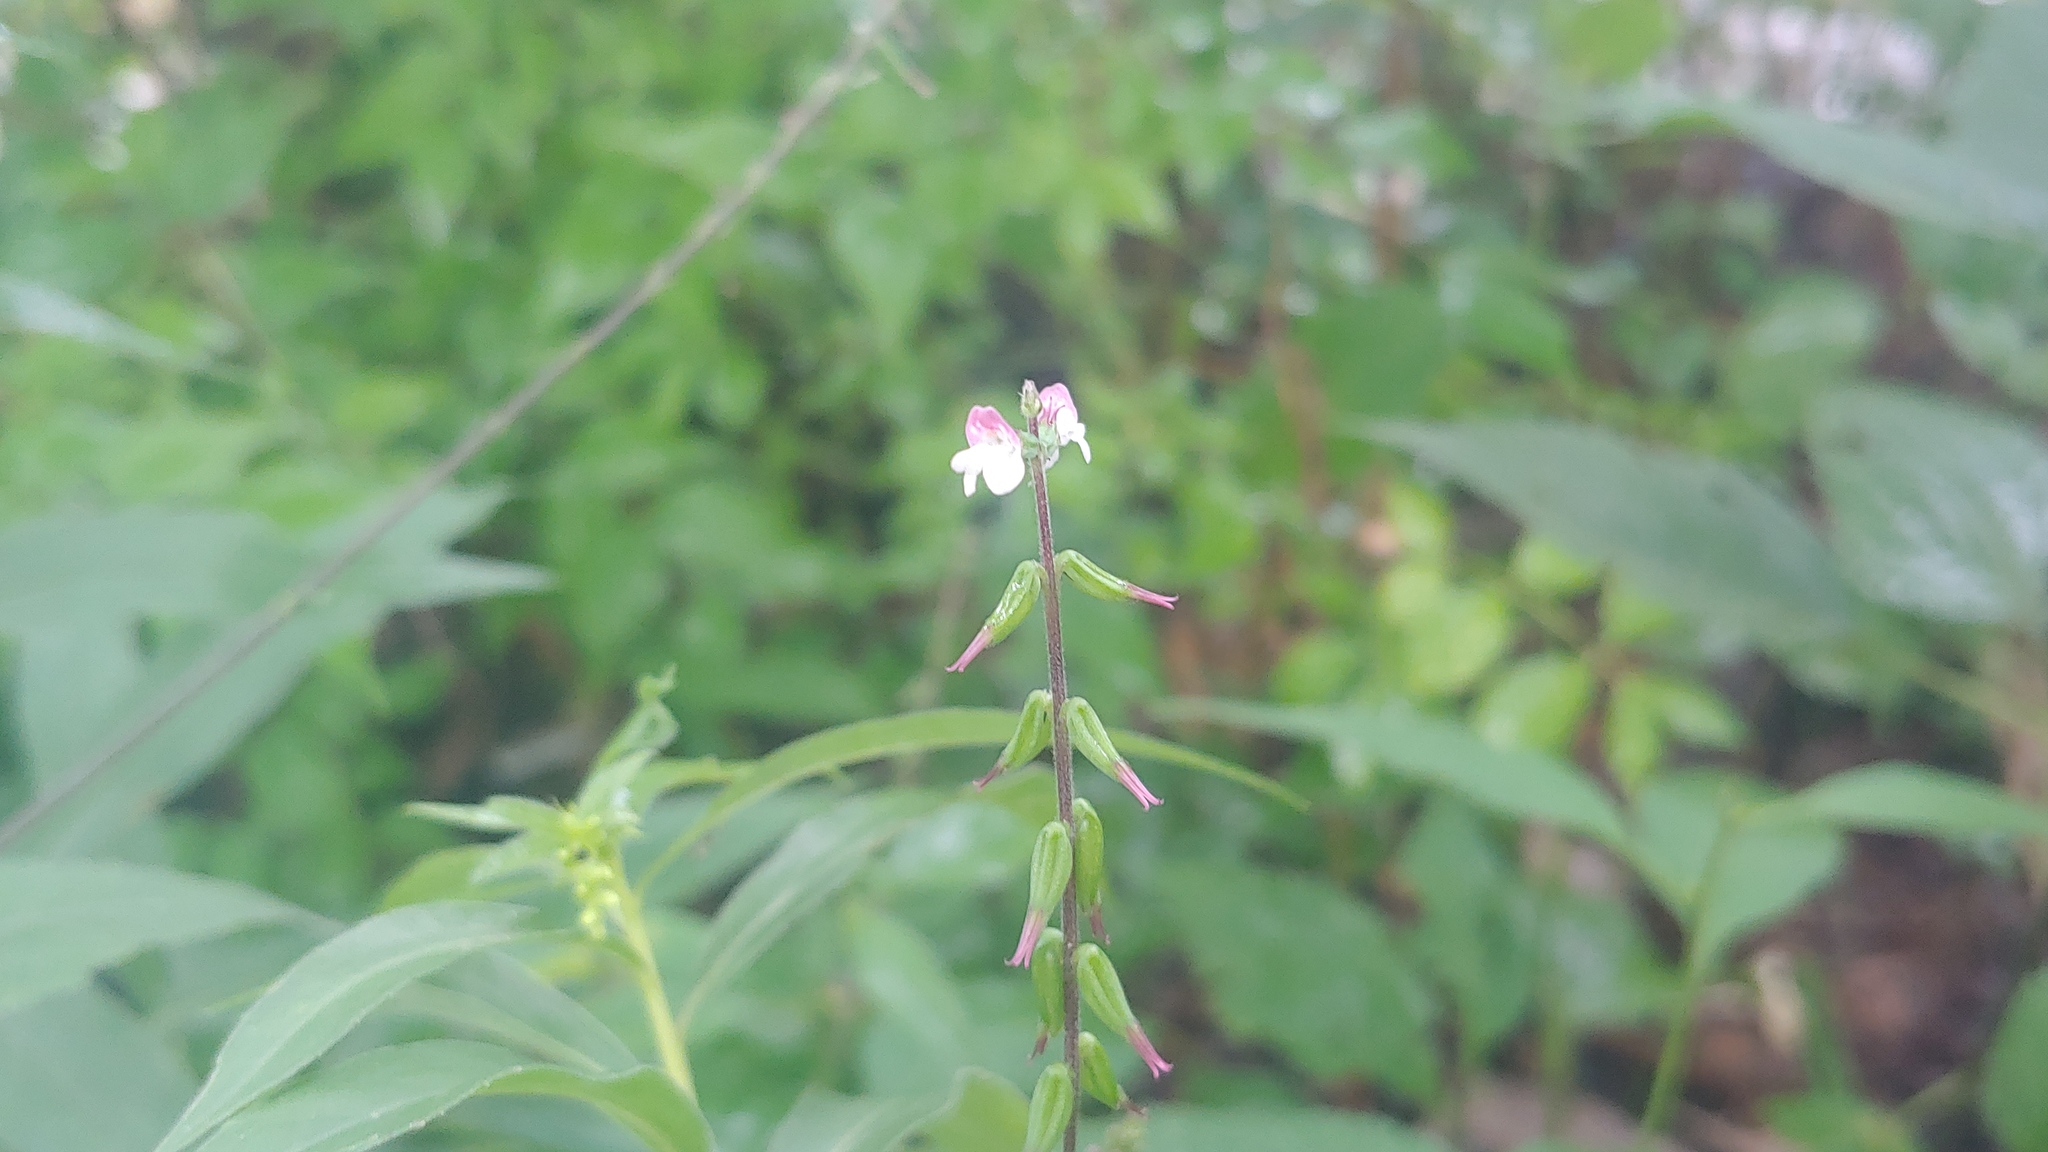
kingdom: Plantae
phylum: Tracheophyta
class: Magnoliopsida
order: Lamiales
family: Phrymaceae
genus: Phryma
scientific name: Phryma leptostachya
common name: American lopseed
